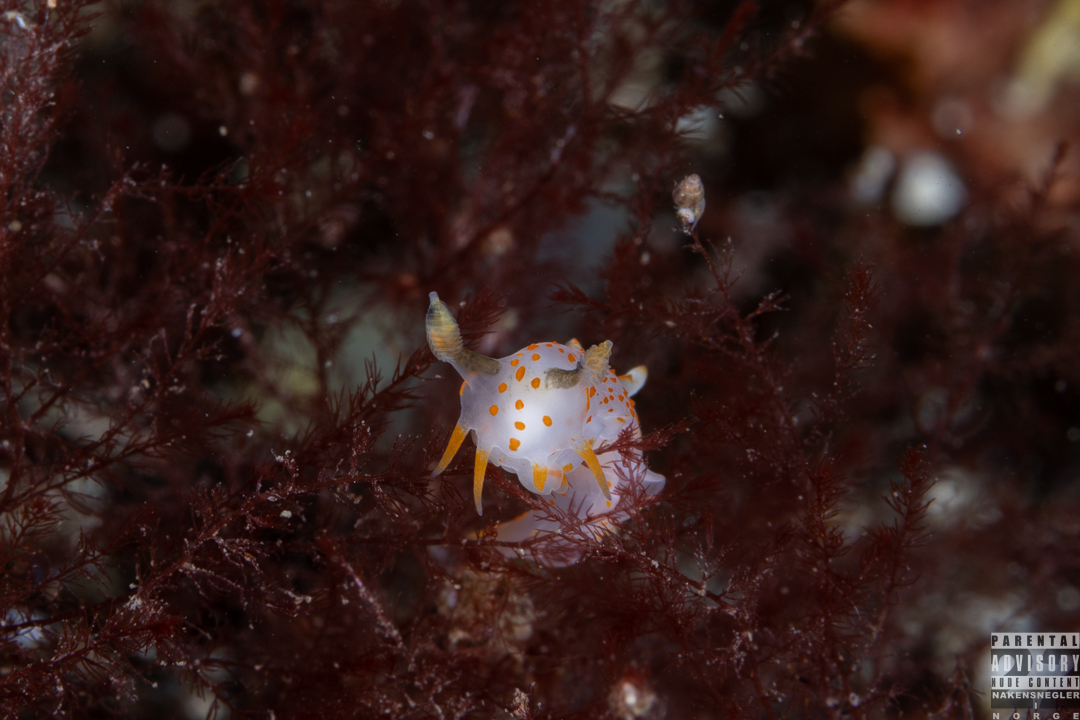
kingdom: Animalia
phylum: Mollusca
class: Gastropoda
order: Nudibranchia
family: Polyceridae
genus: Polycera
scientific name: Polycera quadrilineata
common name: Four-striped polycera
